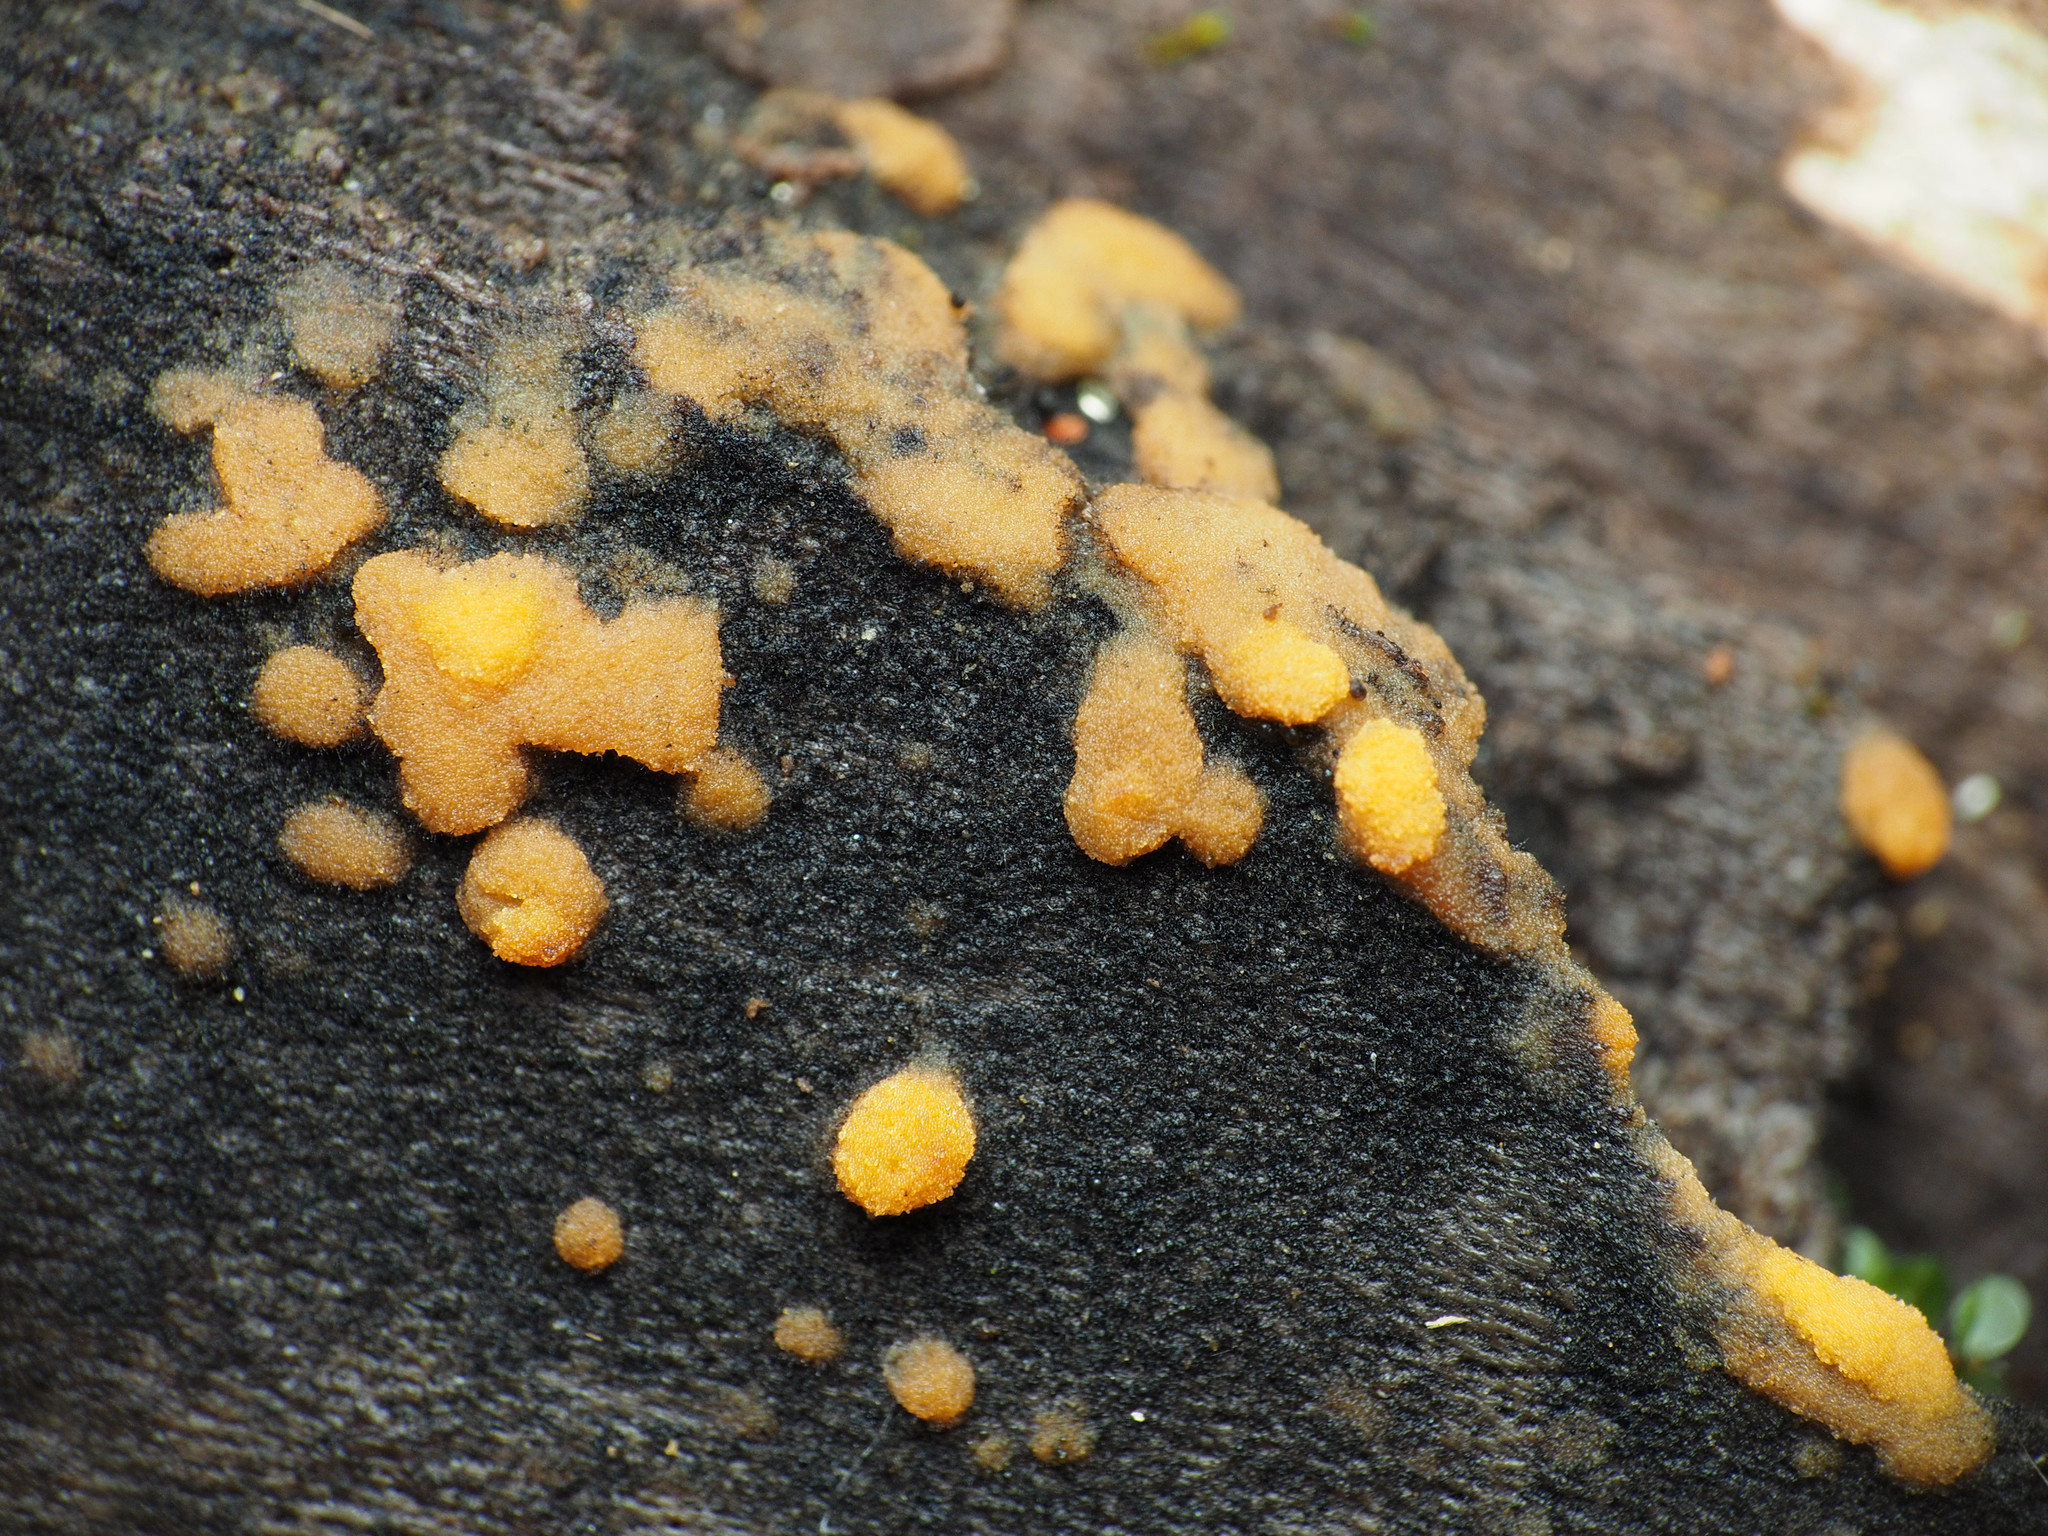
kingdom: Fungi
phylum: Ascomycota
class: Pezizomycetes
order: Pezizales
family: Pyronemataceae
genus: Sphaerosporium
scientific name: Sphaerosporium lignatile
